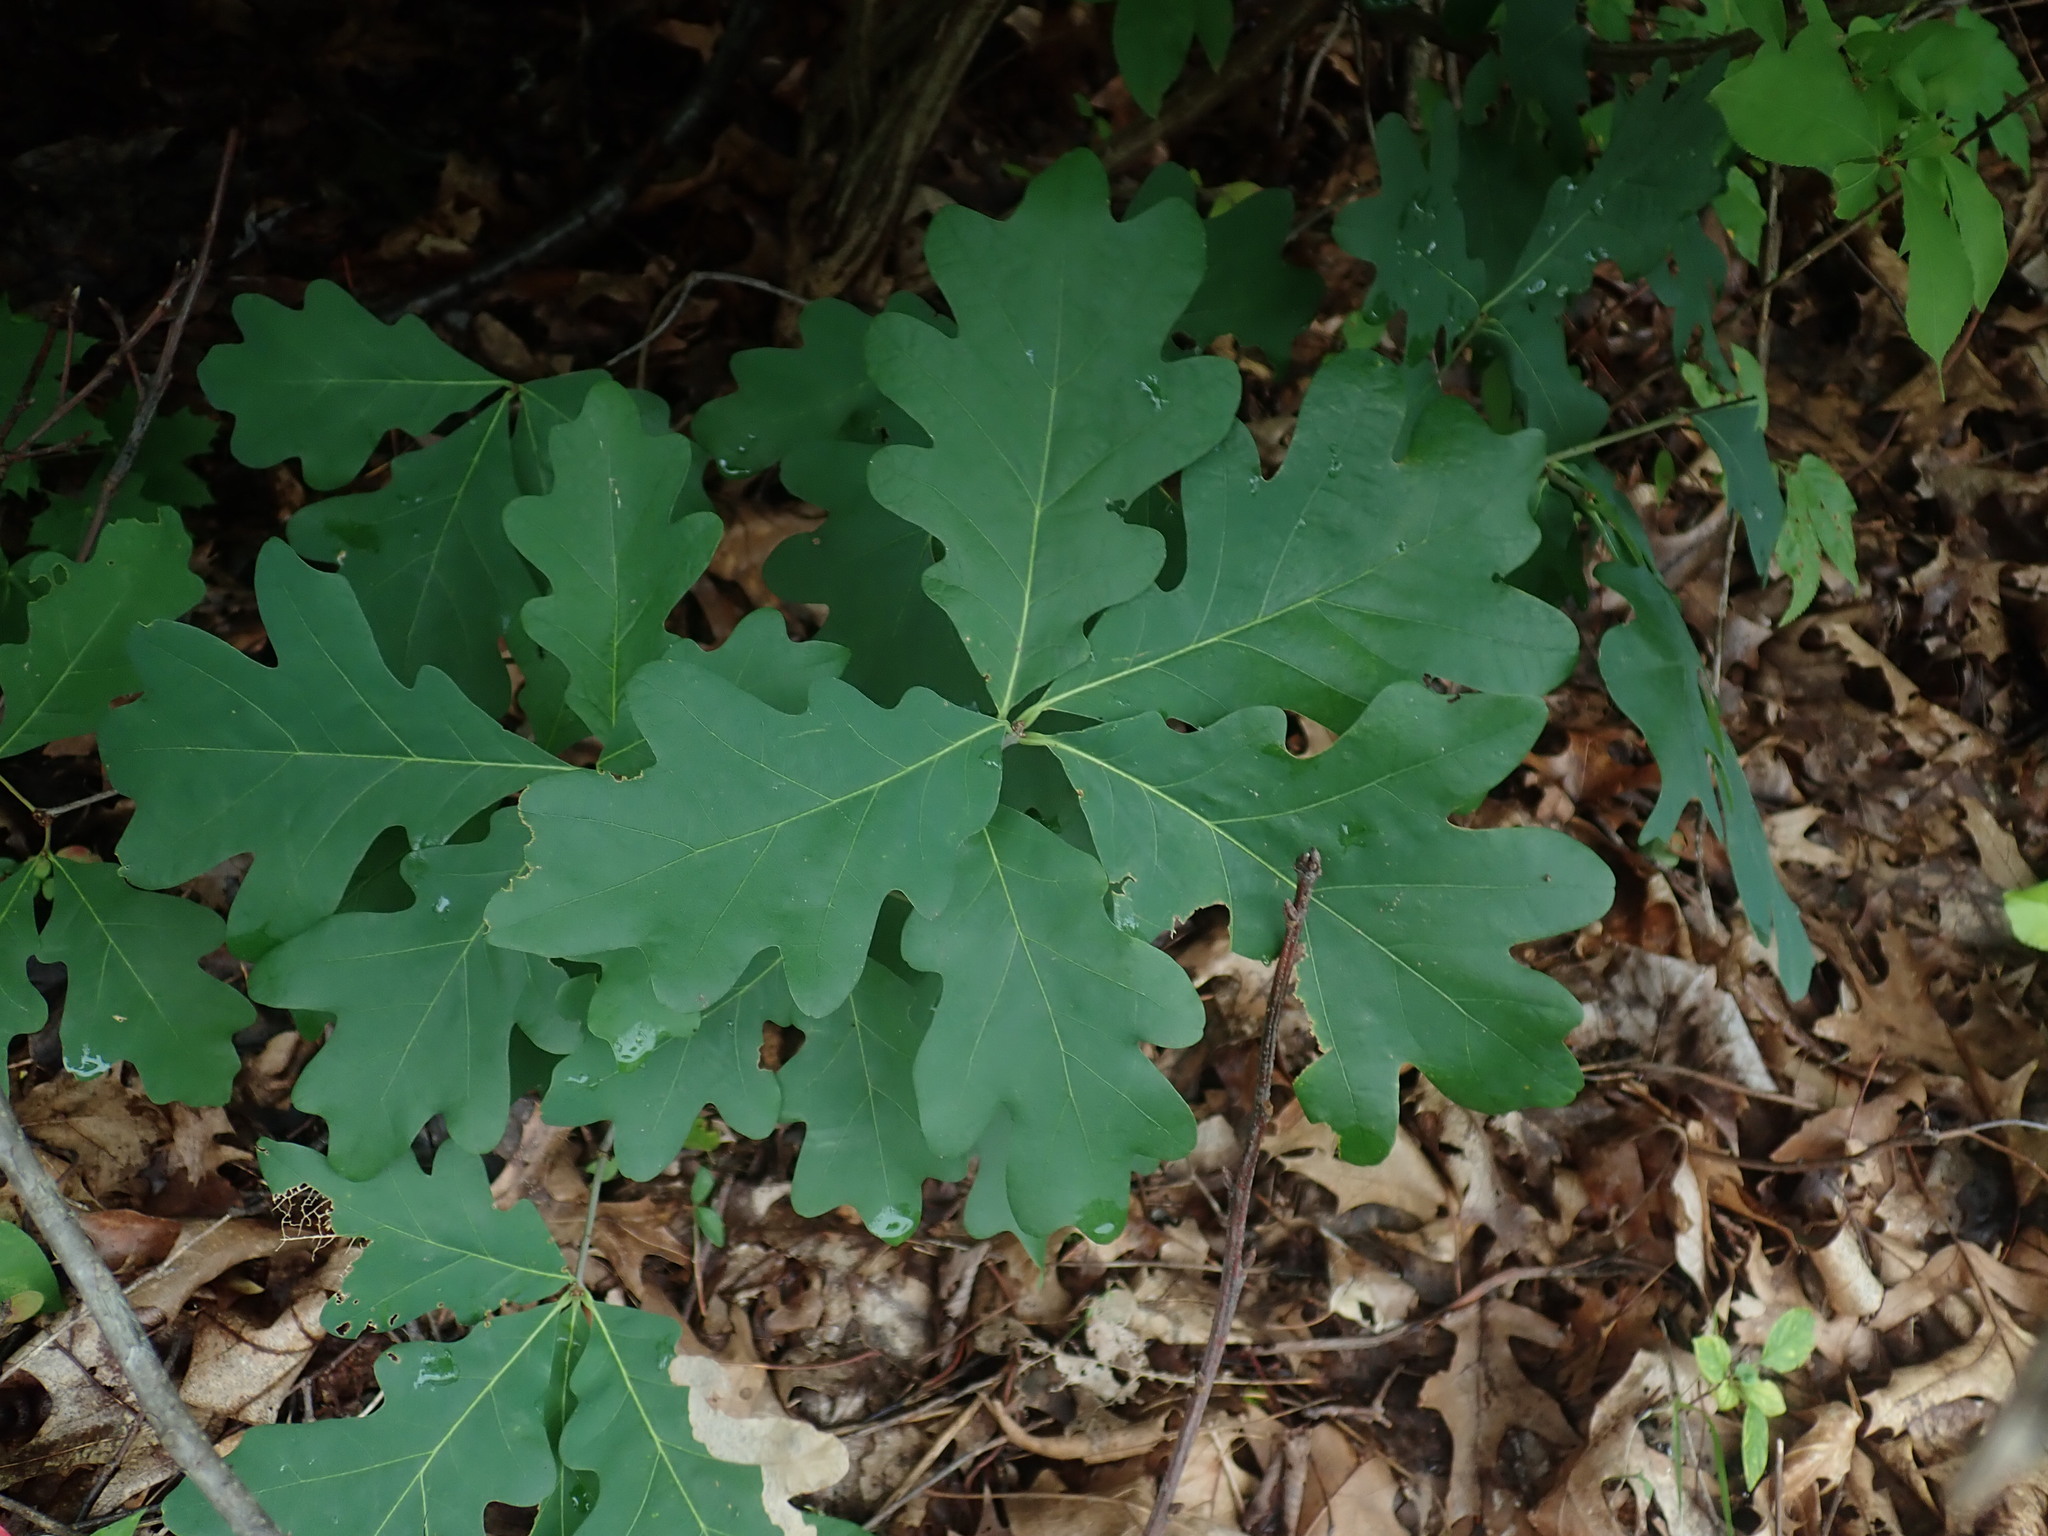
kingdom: Plantae
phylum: Tracheophyta
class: Magnoliopsida
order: Fagales
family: Fagaceae
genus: Quercus
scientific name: Quercus alba
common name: White oak
